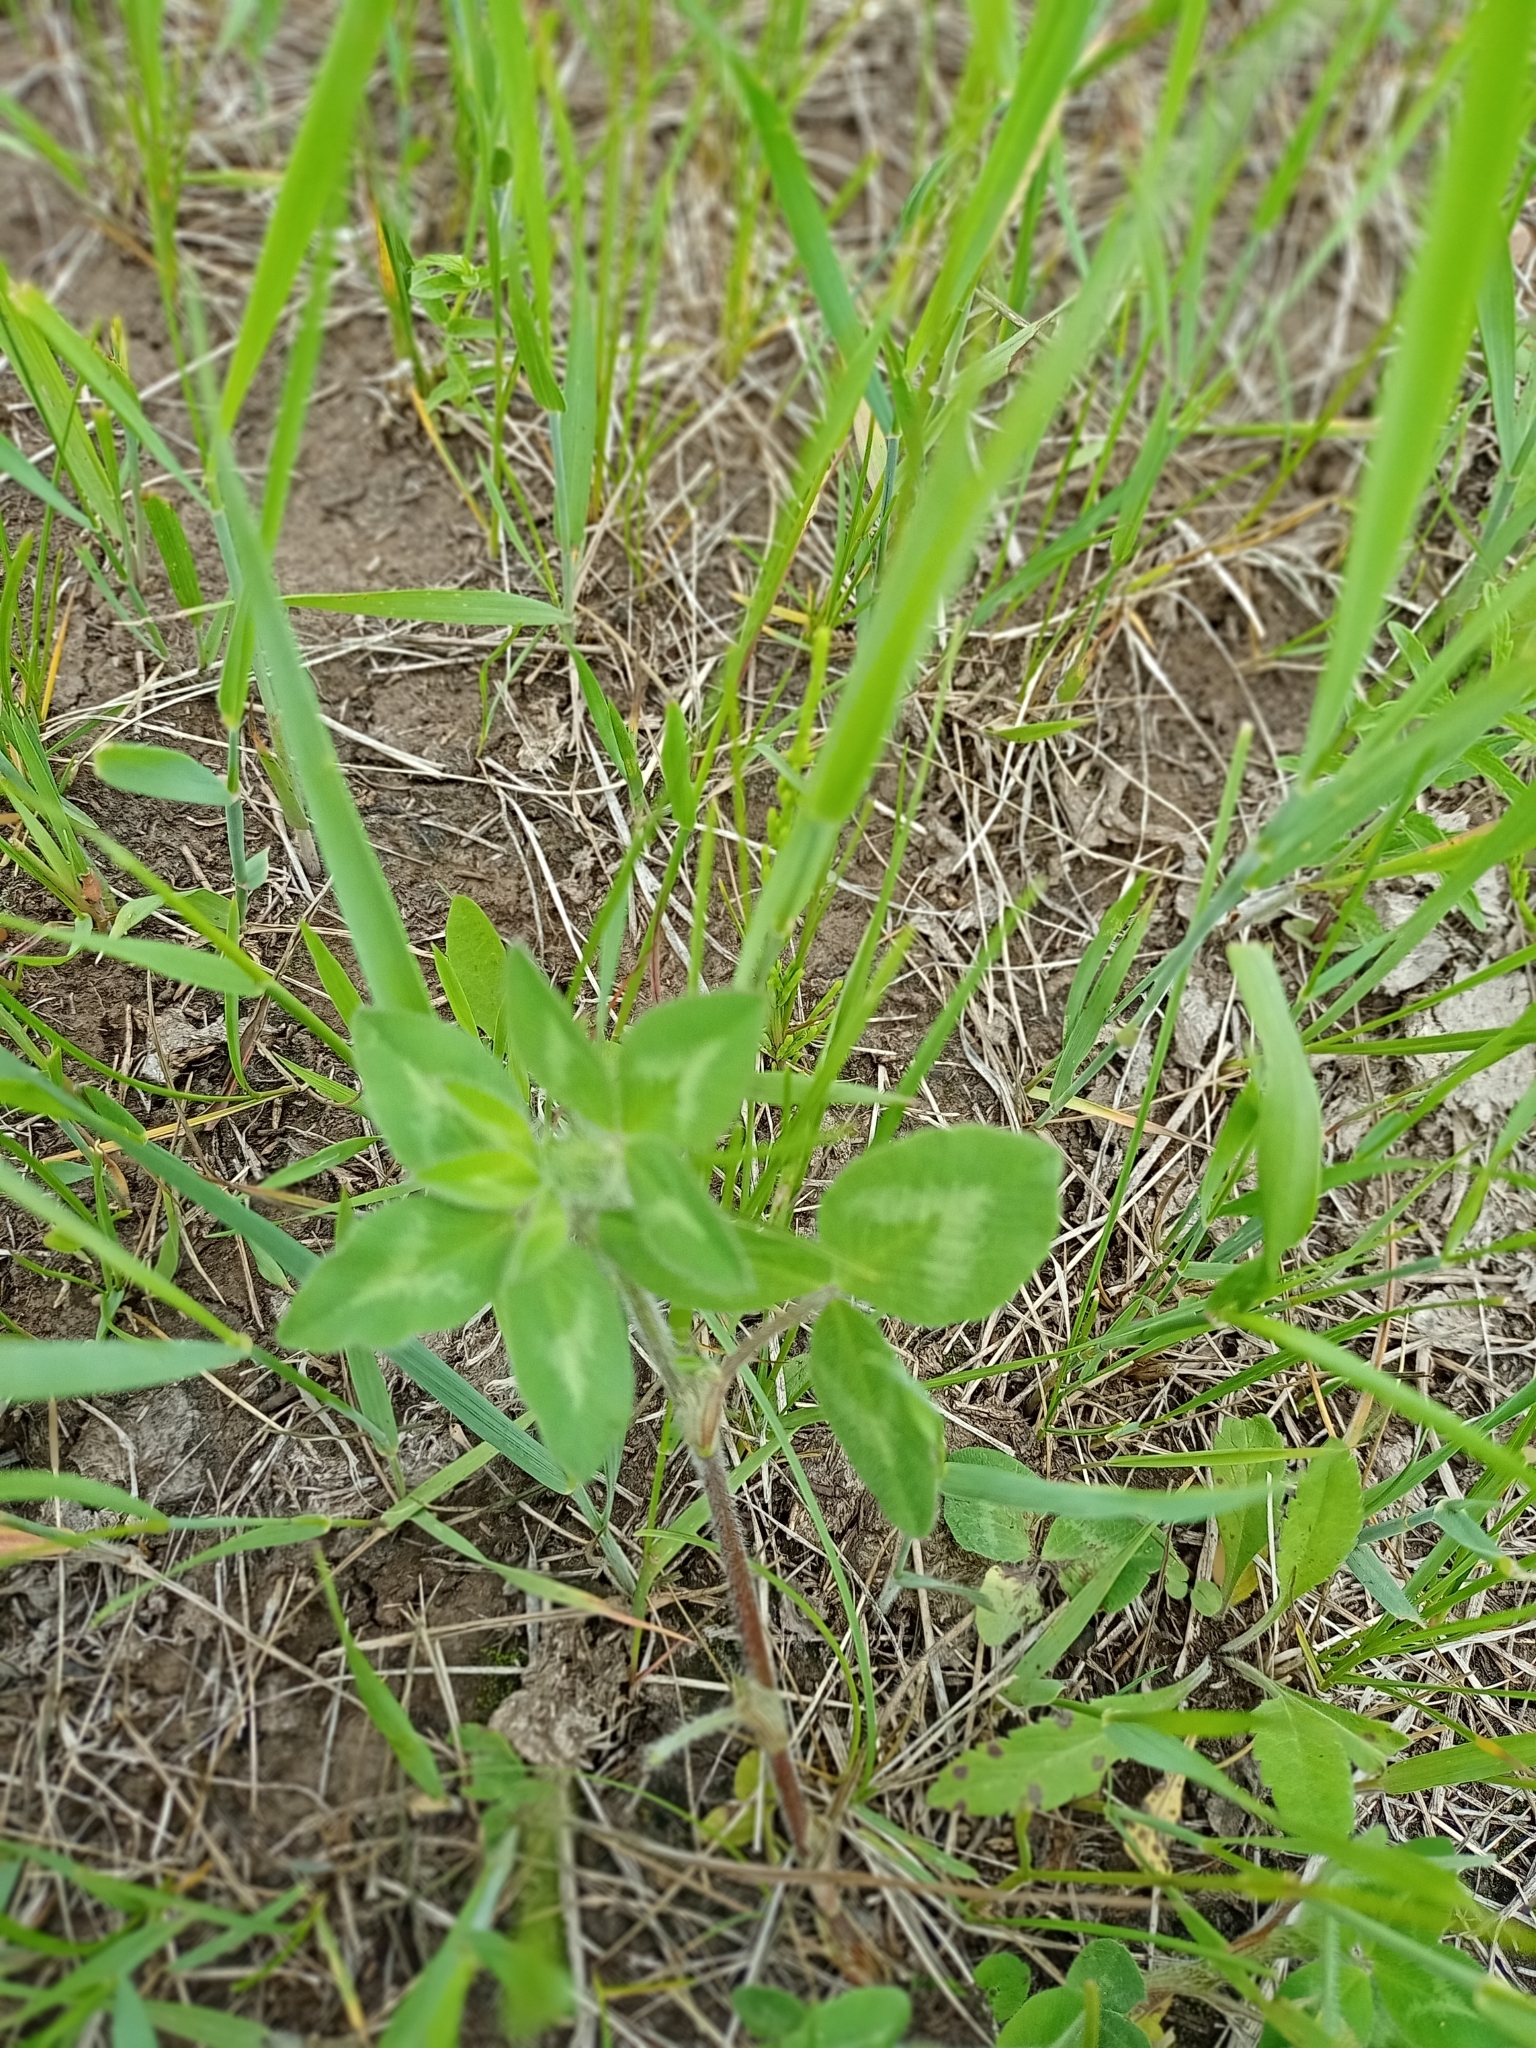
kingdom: Plantae
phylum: Tracheophyta
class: Magnoliopsida
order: Fabales
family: Fabaceae
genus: Trifolium
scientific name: Trifolium pratense
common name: Red clover
